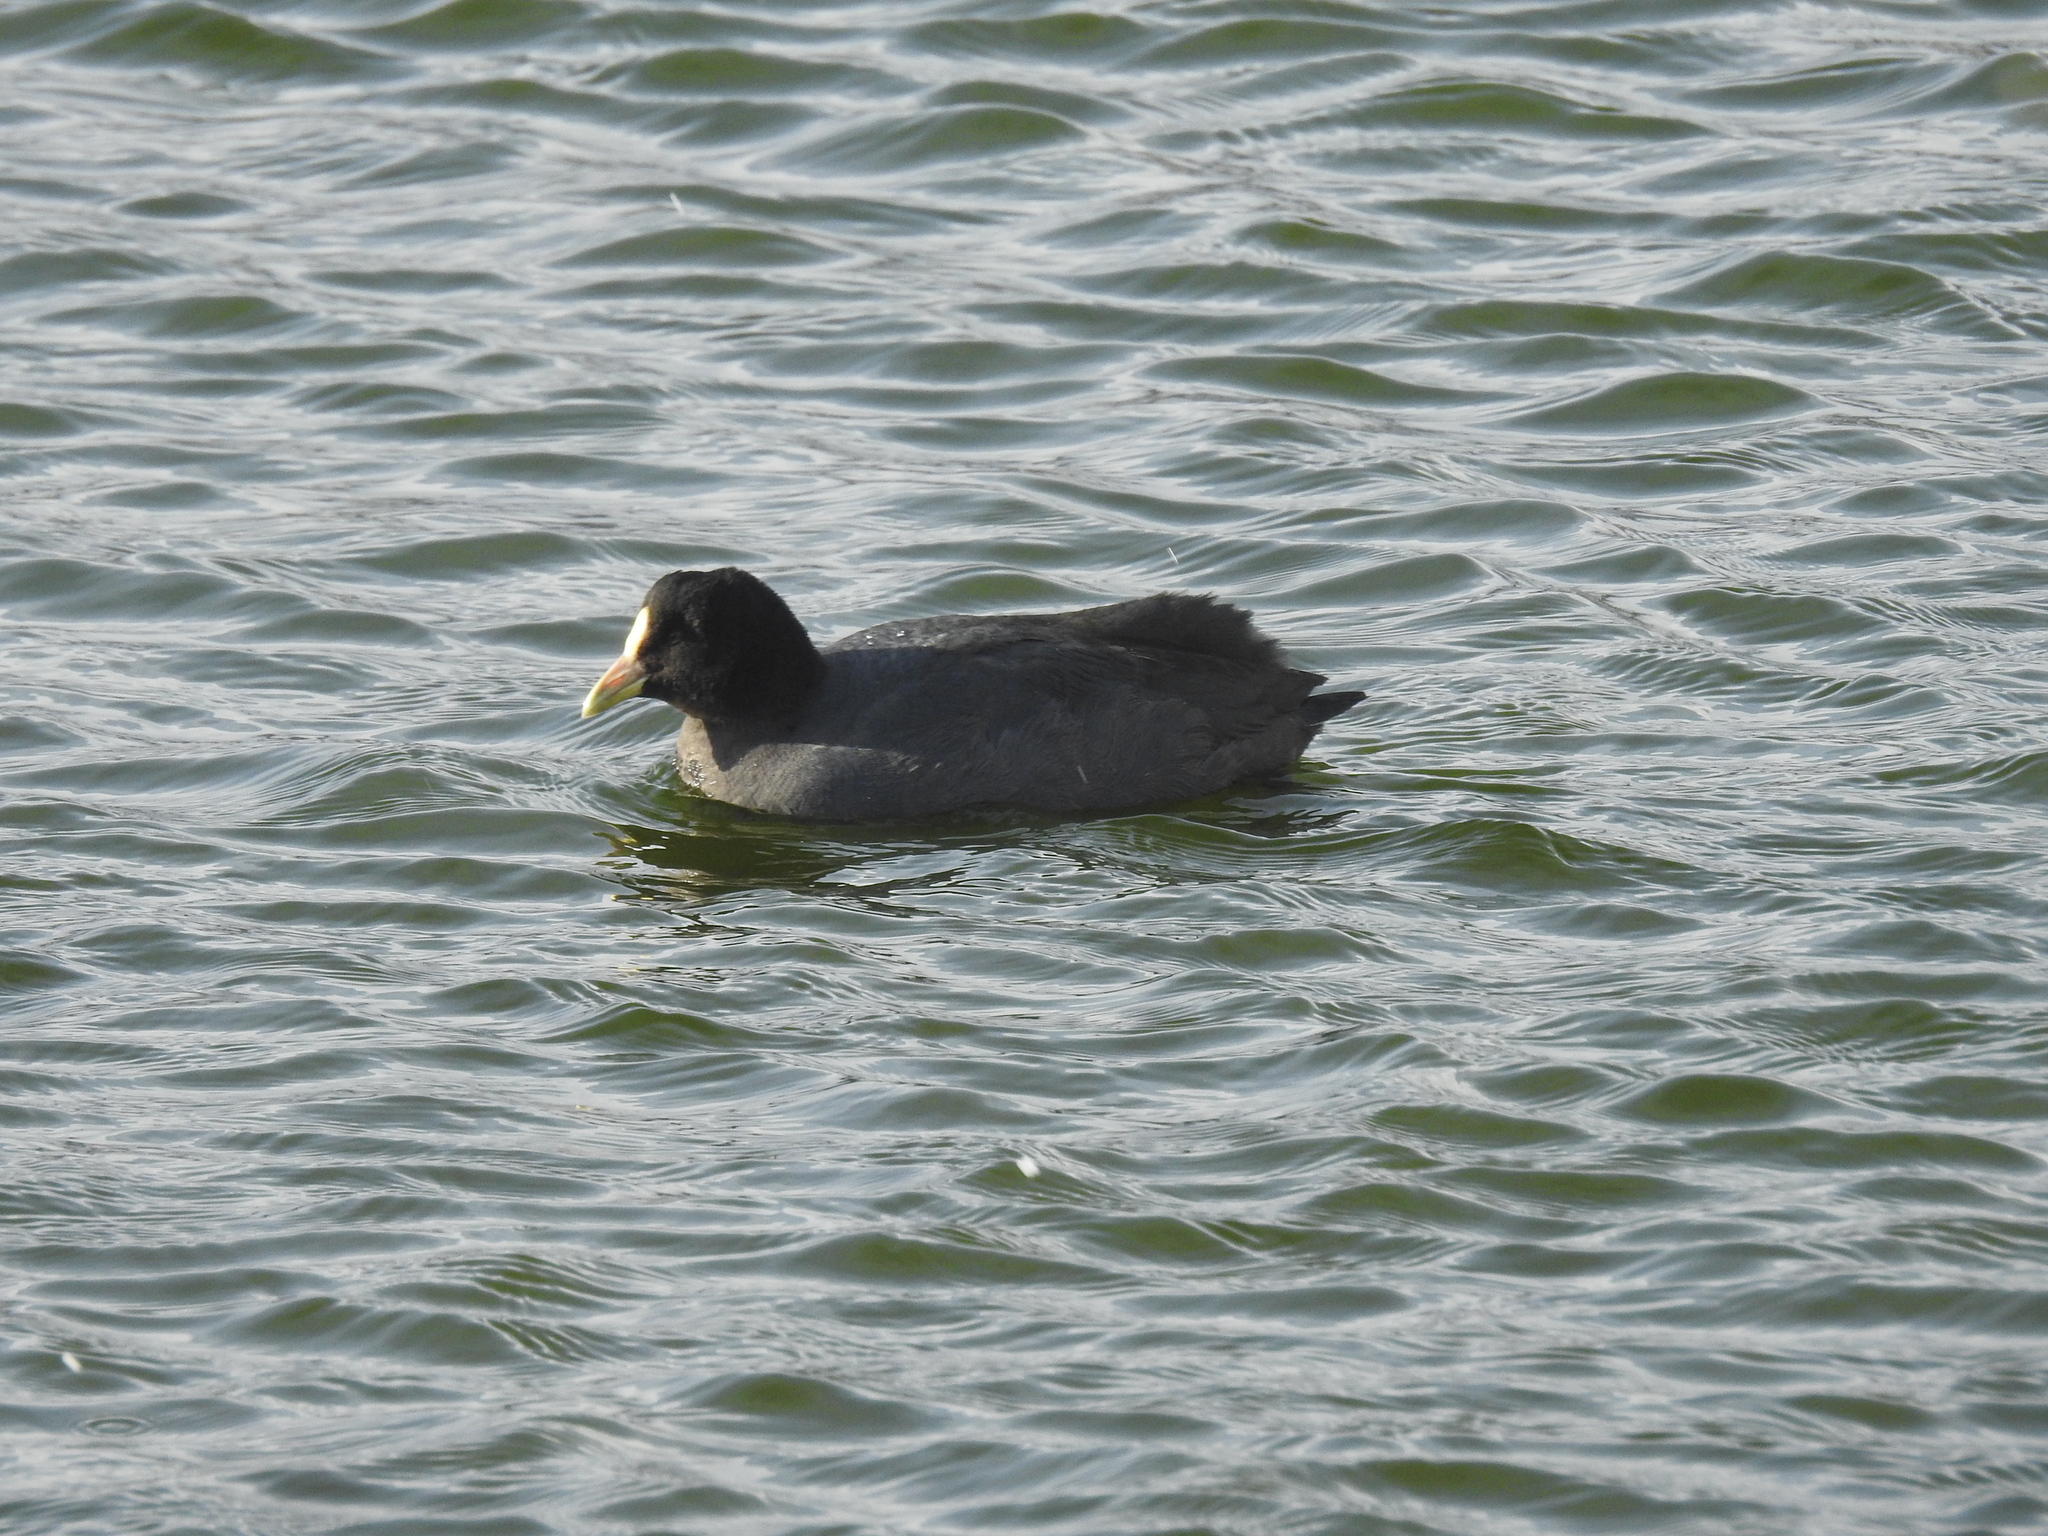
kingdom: Animalia
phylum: Chordata
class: Aves
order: Gruiformes
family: Rallidae
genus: Fulica
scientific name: Fulica leucoptera
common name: White-winged coot
